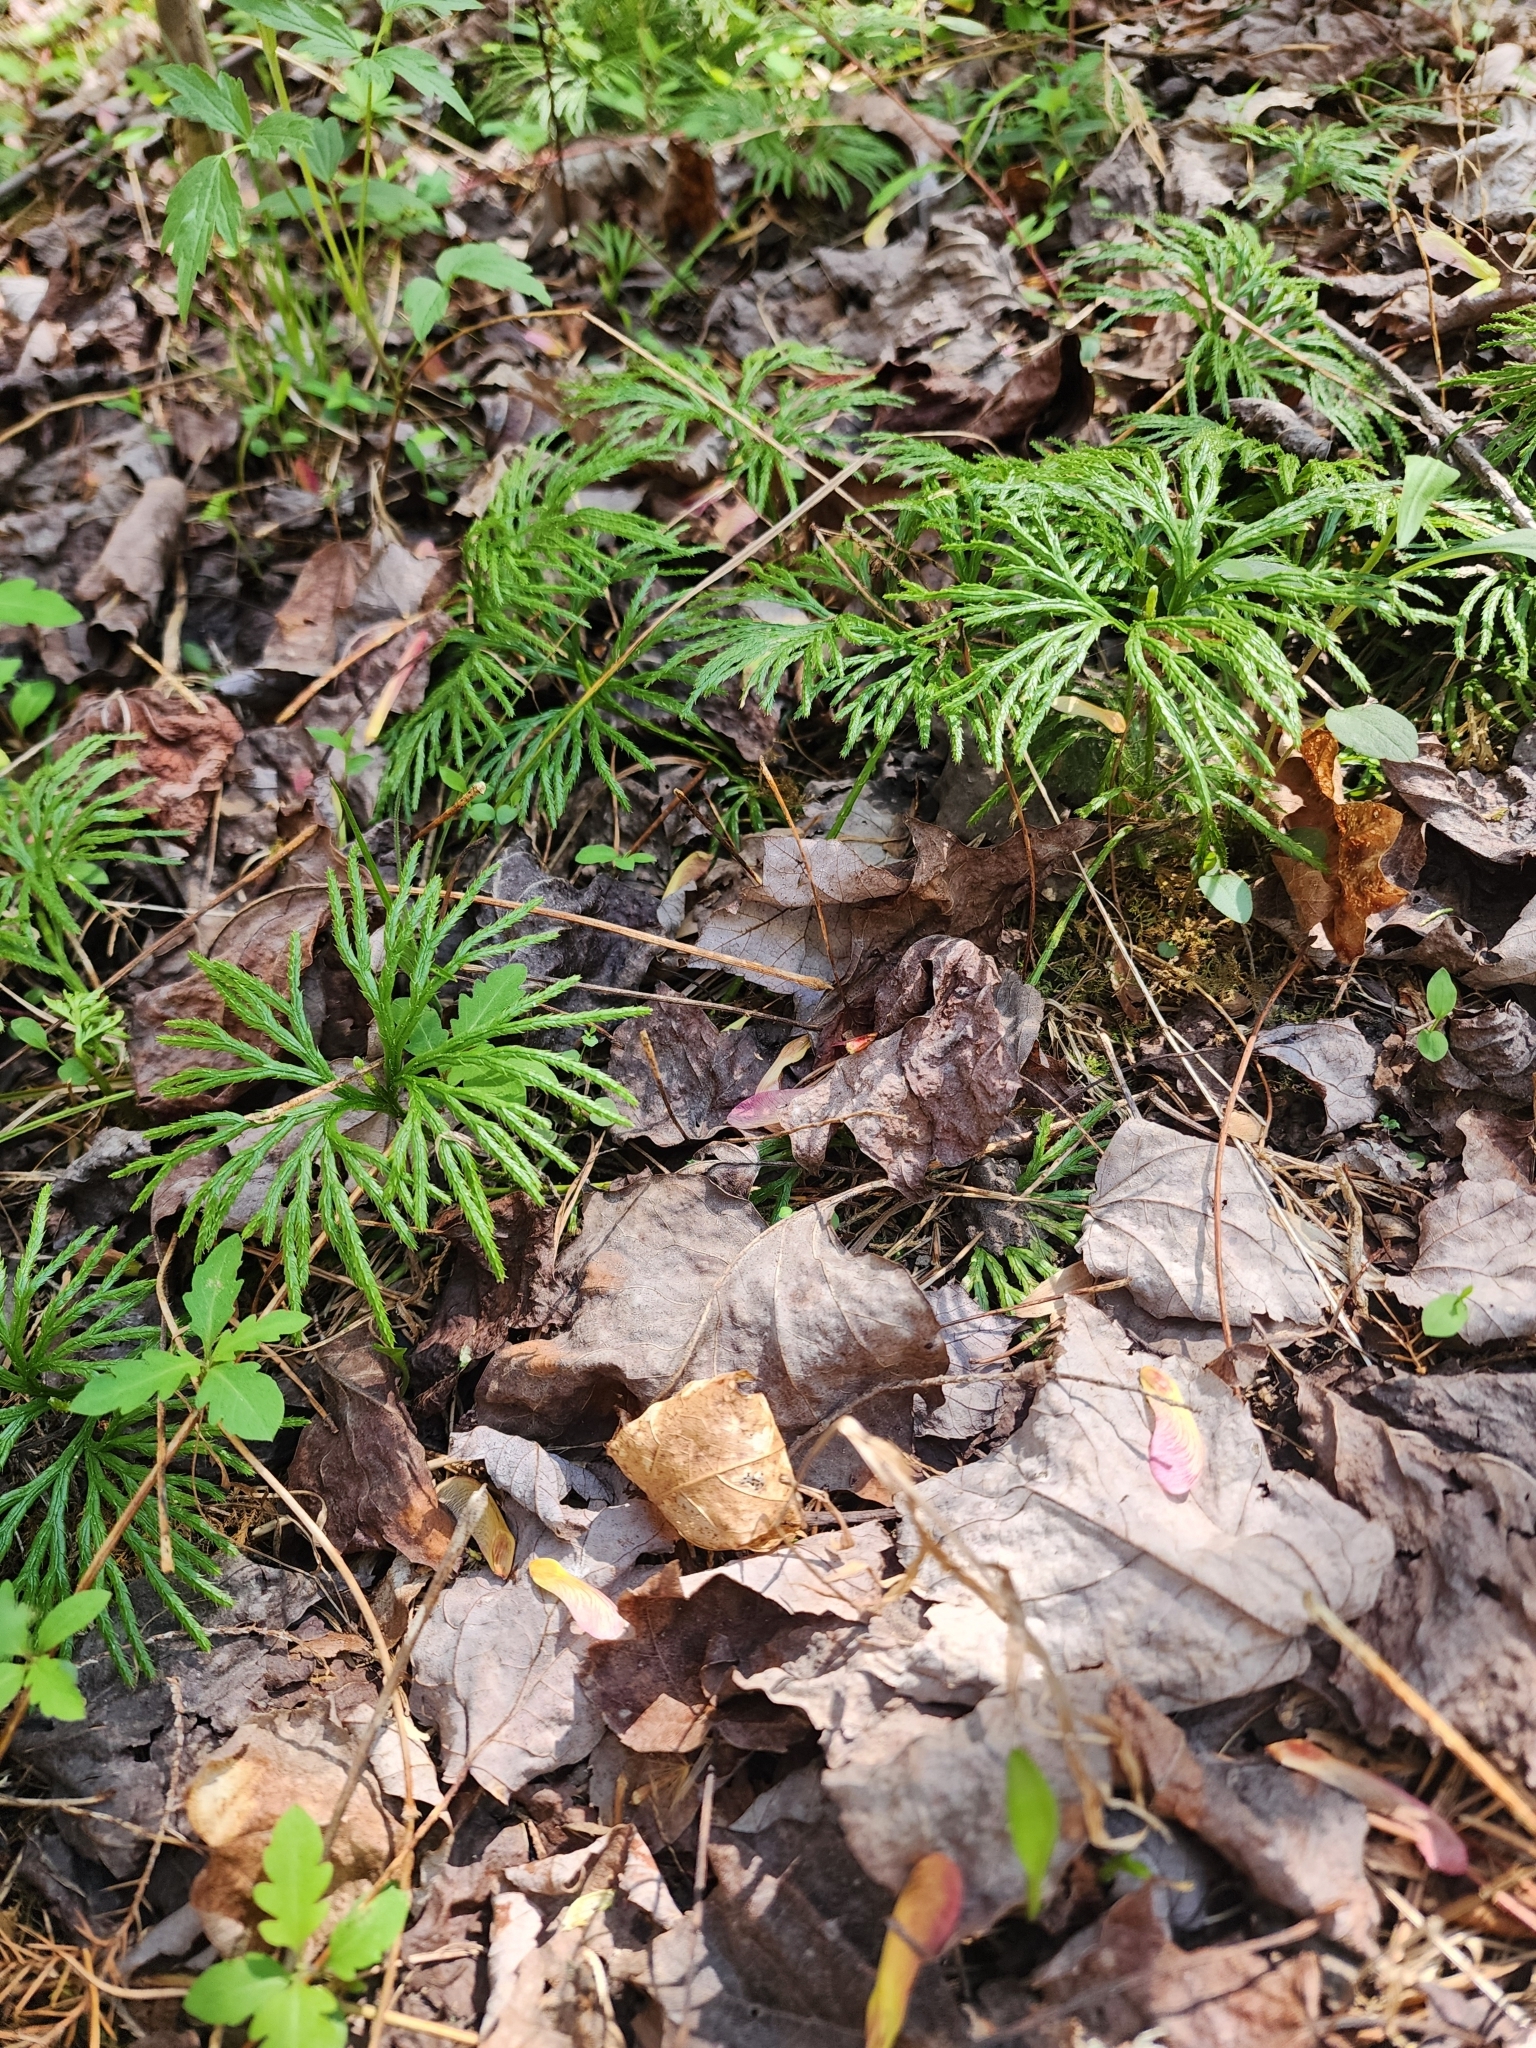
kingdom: Plantae
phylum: Tracheophyta
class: Lycopodiopsida
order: Lycopodiales
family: Lycopodiaceae
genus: Diphasiastrum
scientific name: Diphasiastrum digitatum
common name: Southern running-pine
